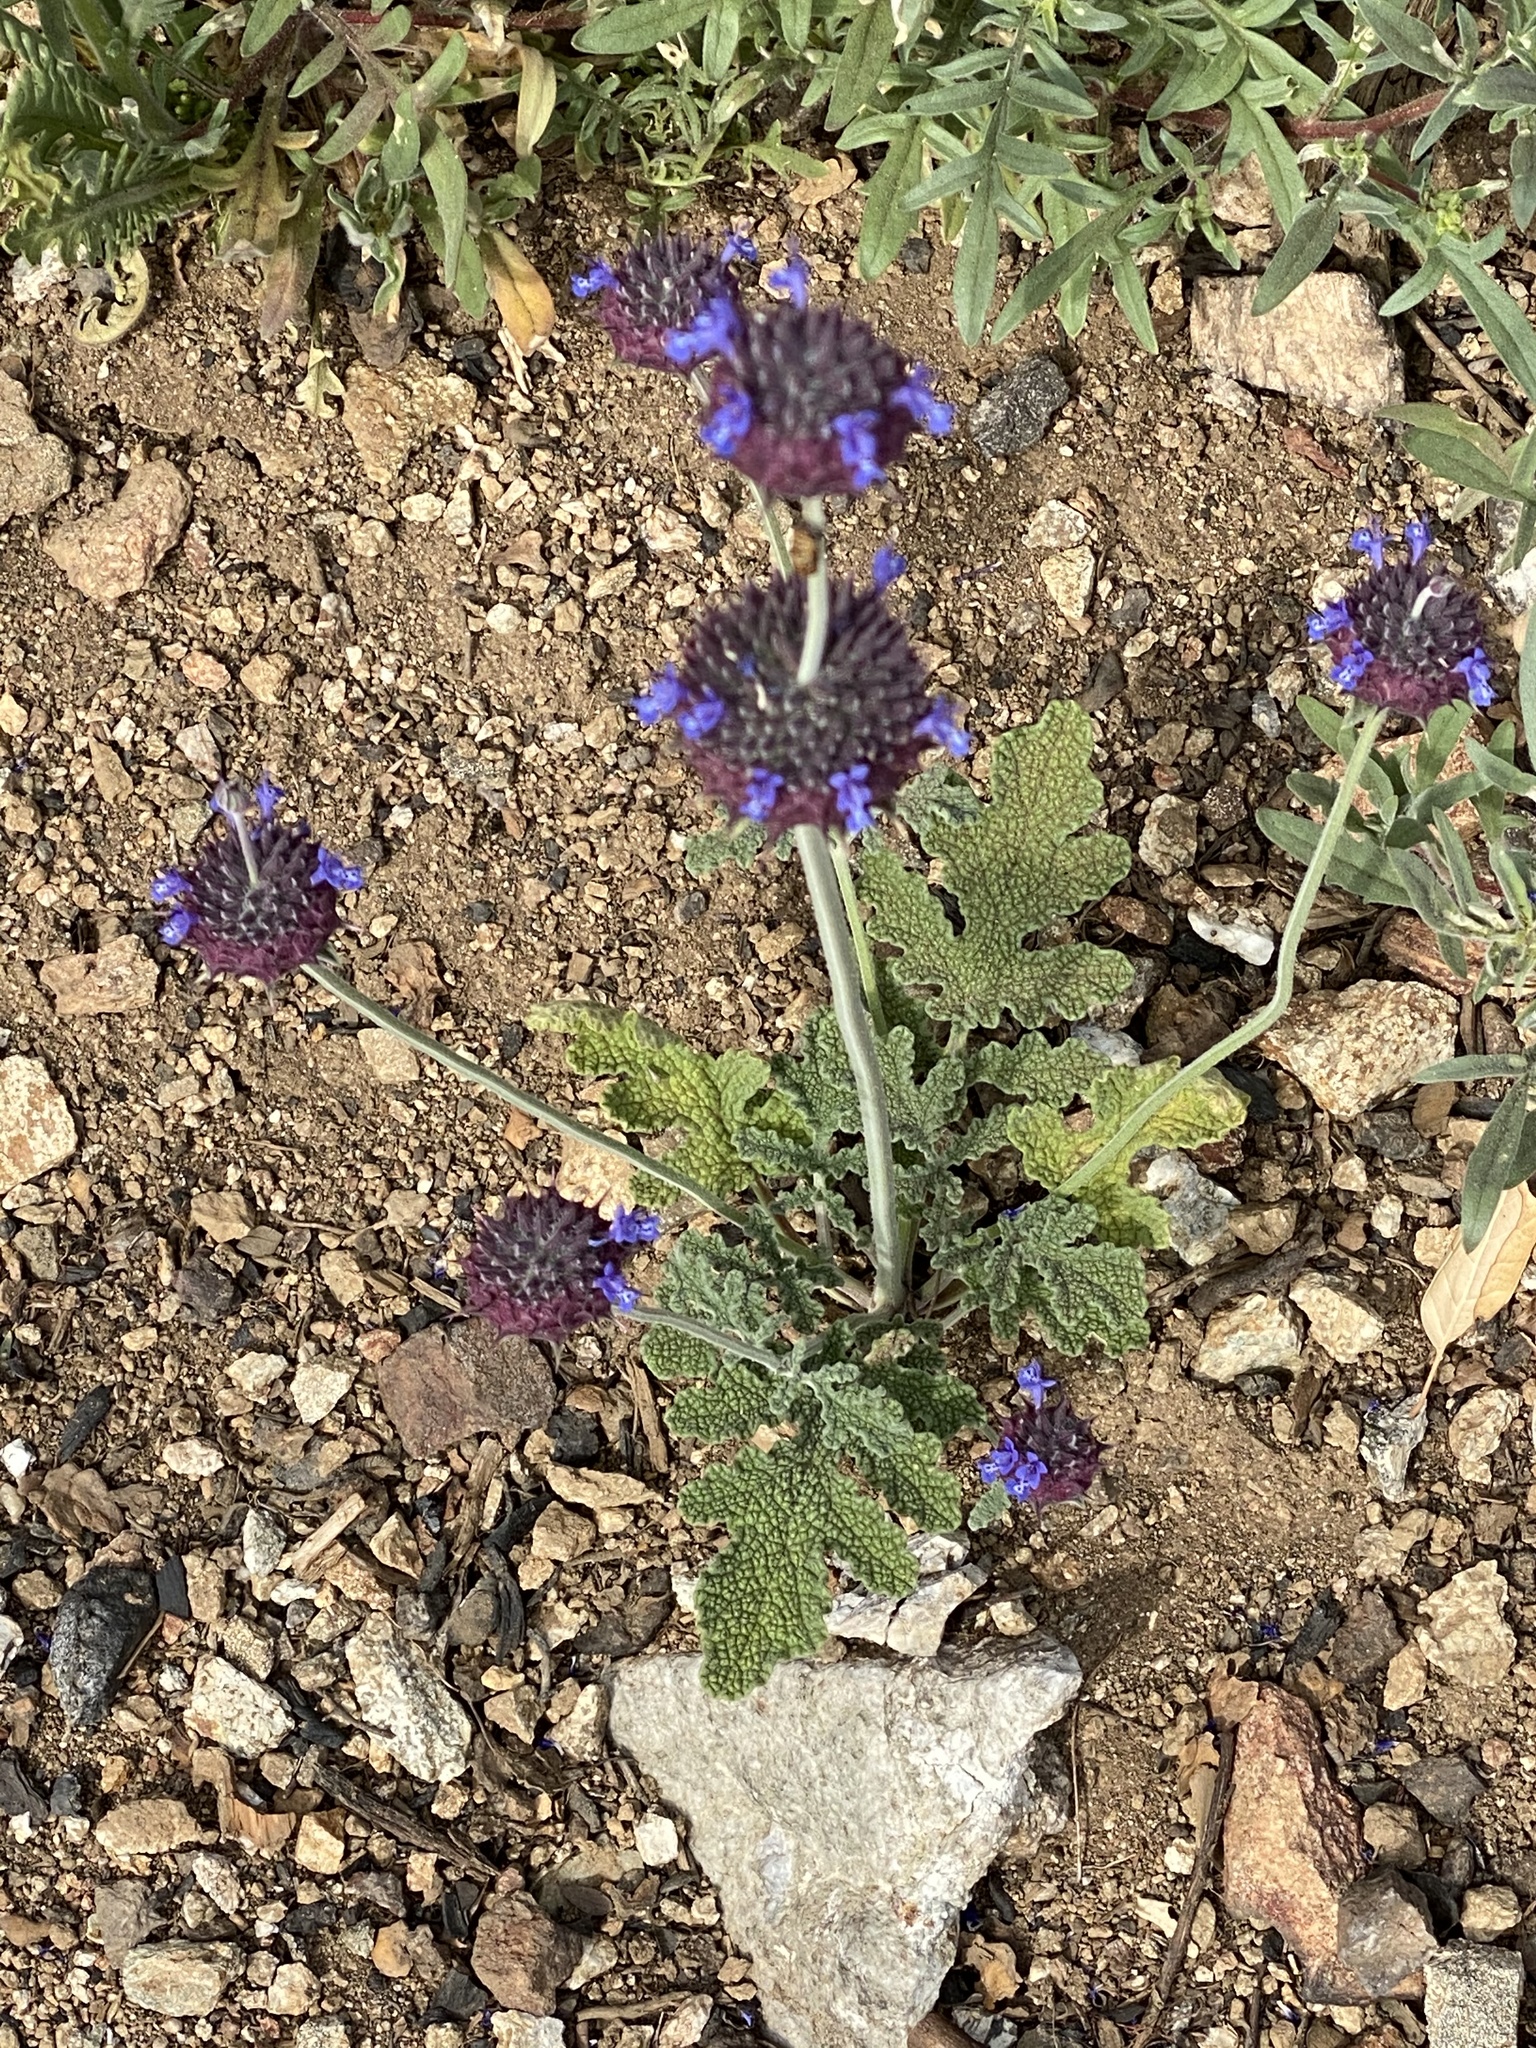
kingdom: Plantae
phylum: Tracheophyta
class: Magnoliopsida
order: Lamiales
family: Lamiaceae
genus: Salvia
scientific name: Salvia columbariae
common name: Chia
